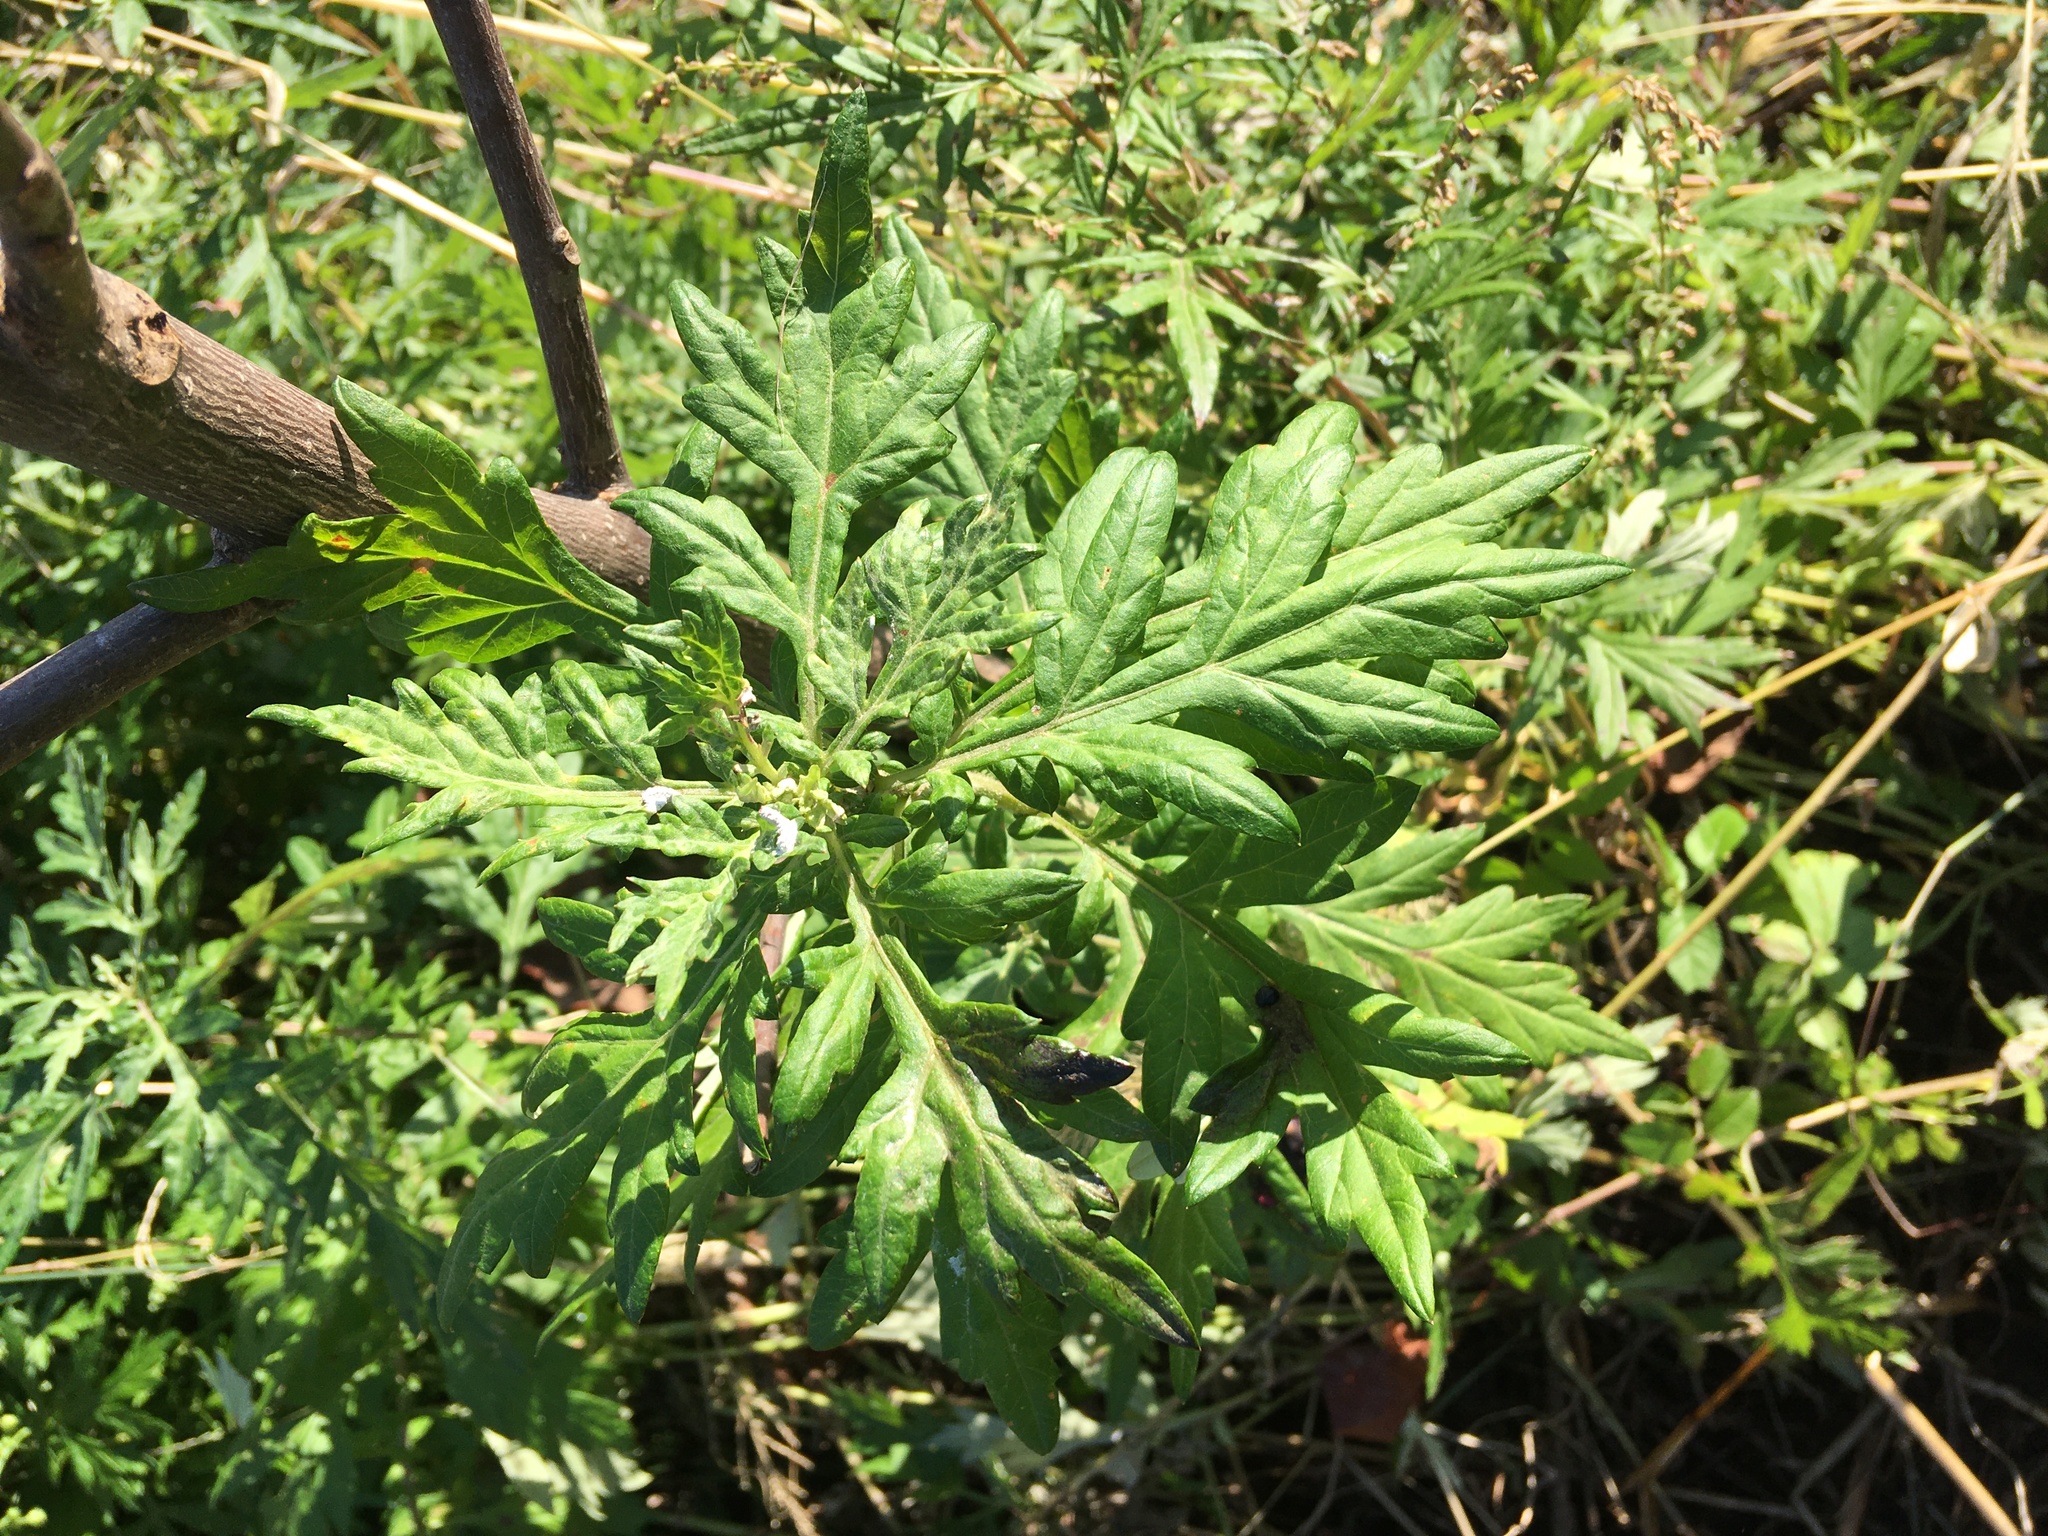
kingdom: Plantae
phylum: Tracheophyta
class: Magnoliopsida
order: Asterales
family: Asteraceae
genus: Artemisia
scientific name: Artemisia vulgaris
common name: Mugwort
